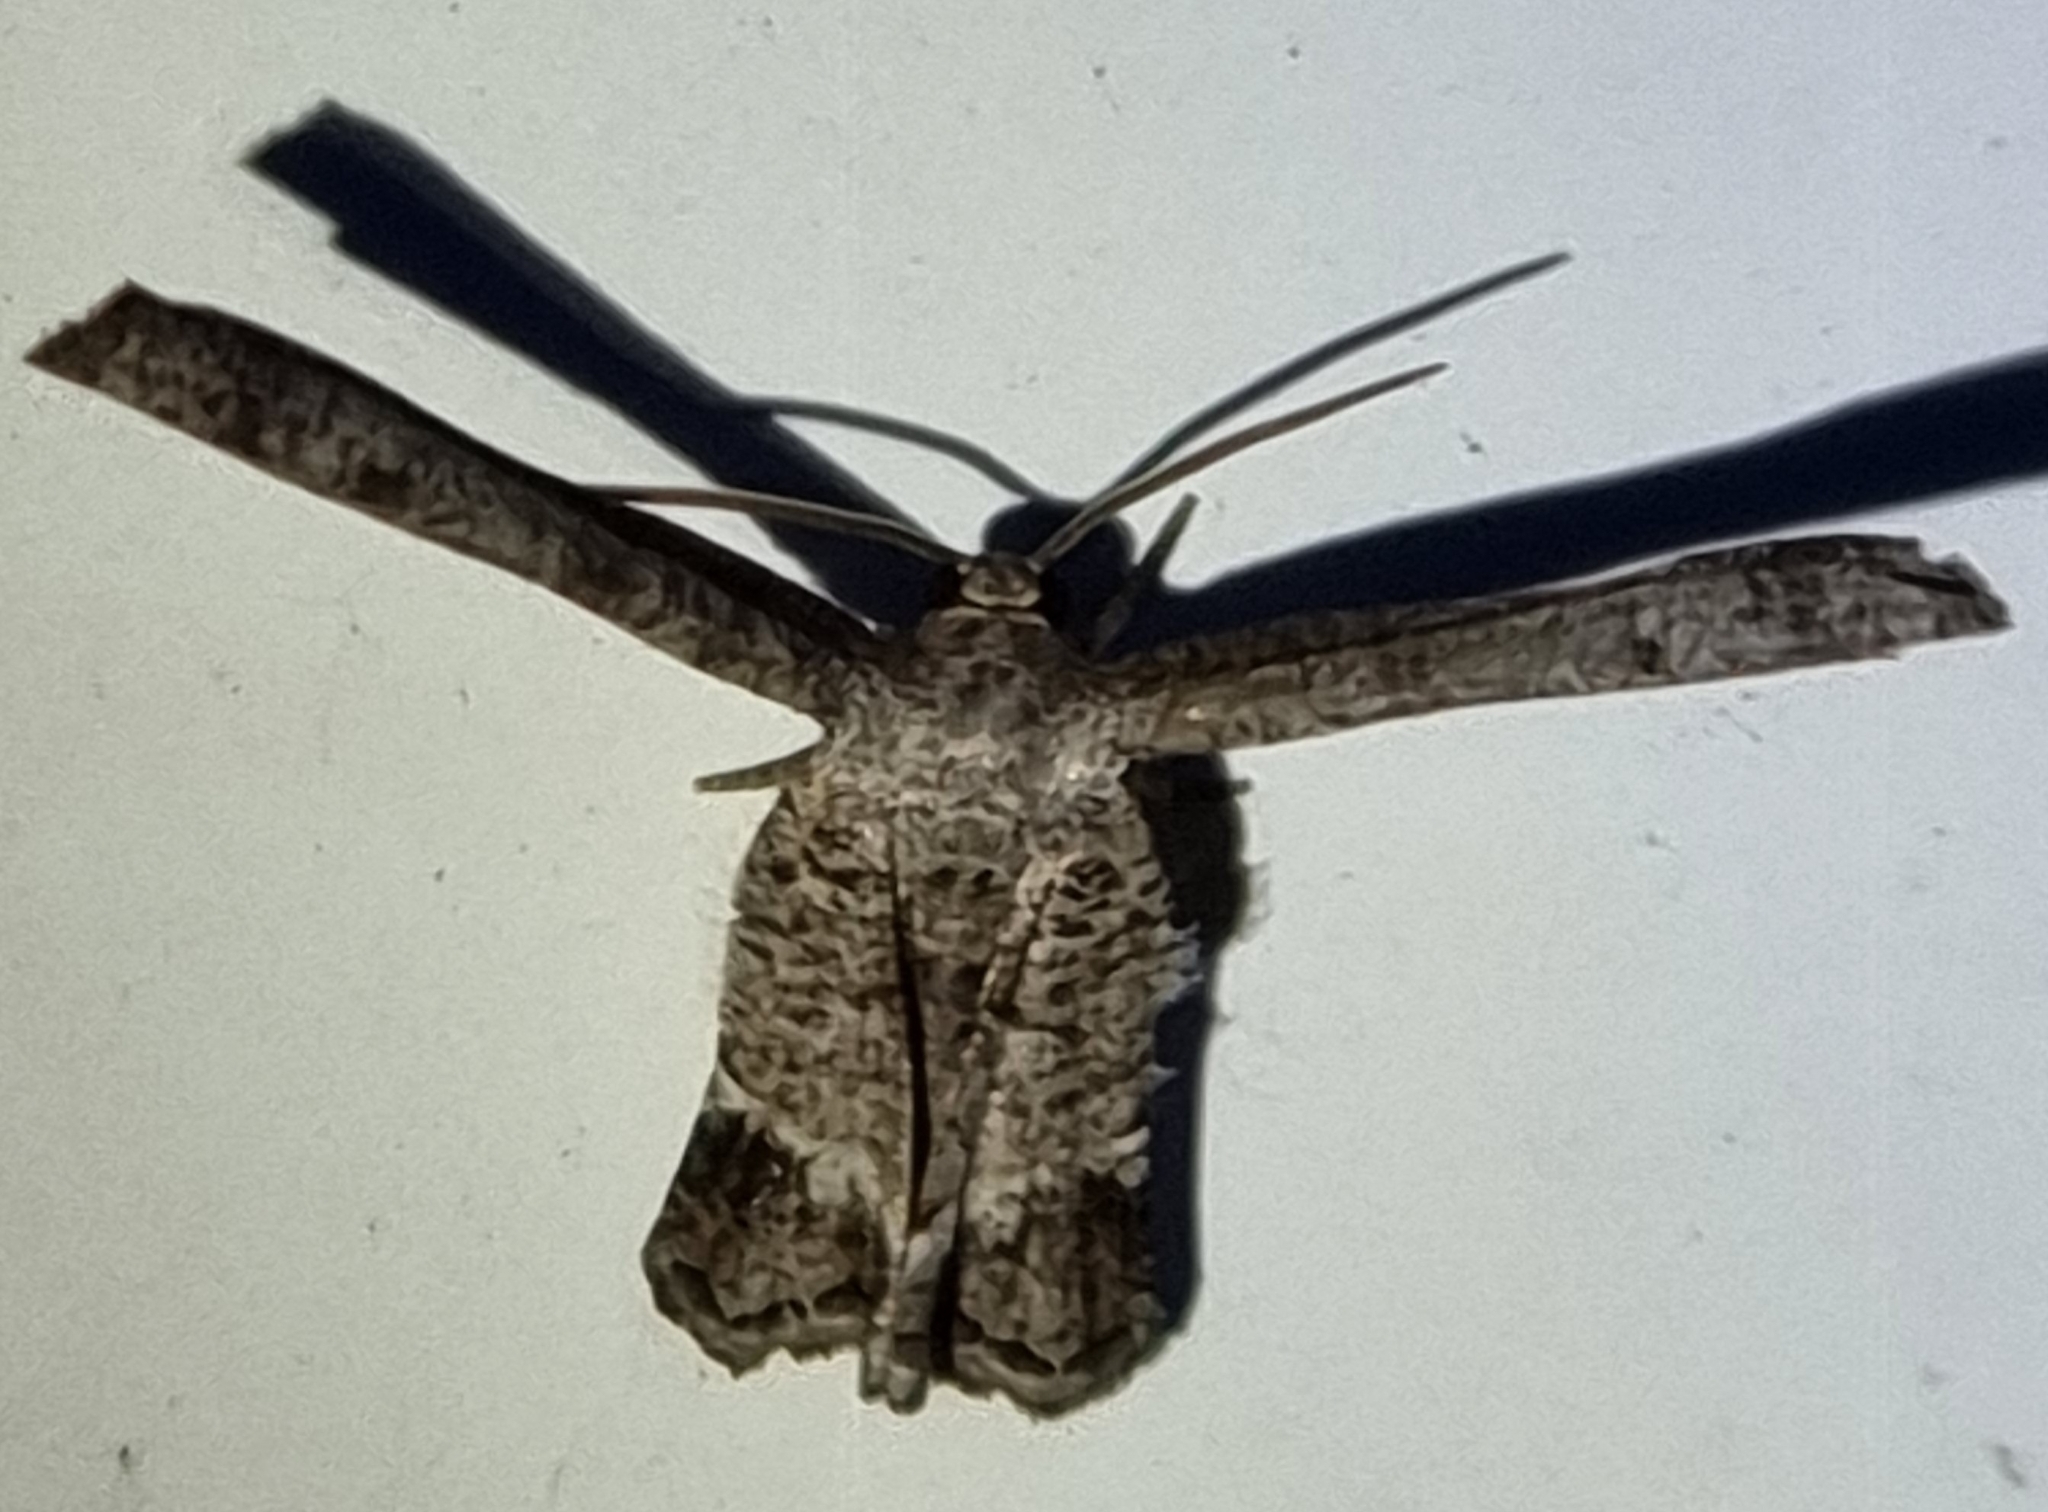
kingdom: Animalia
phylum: Arthropoda
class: Insecta
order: Lepidoptera
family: Uraniidae
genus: Phazaca
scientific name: Phazaca interrupta
